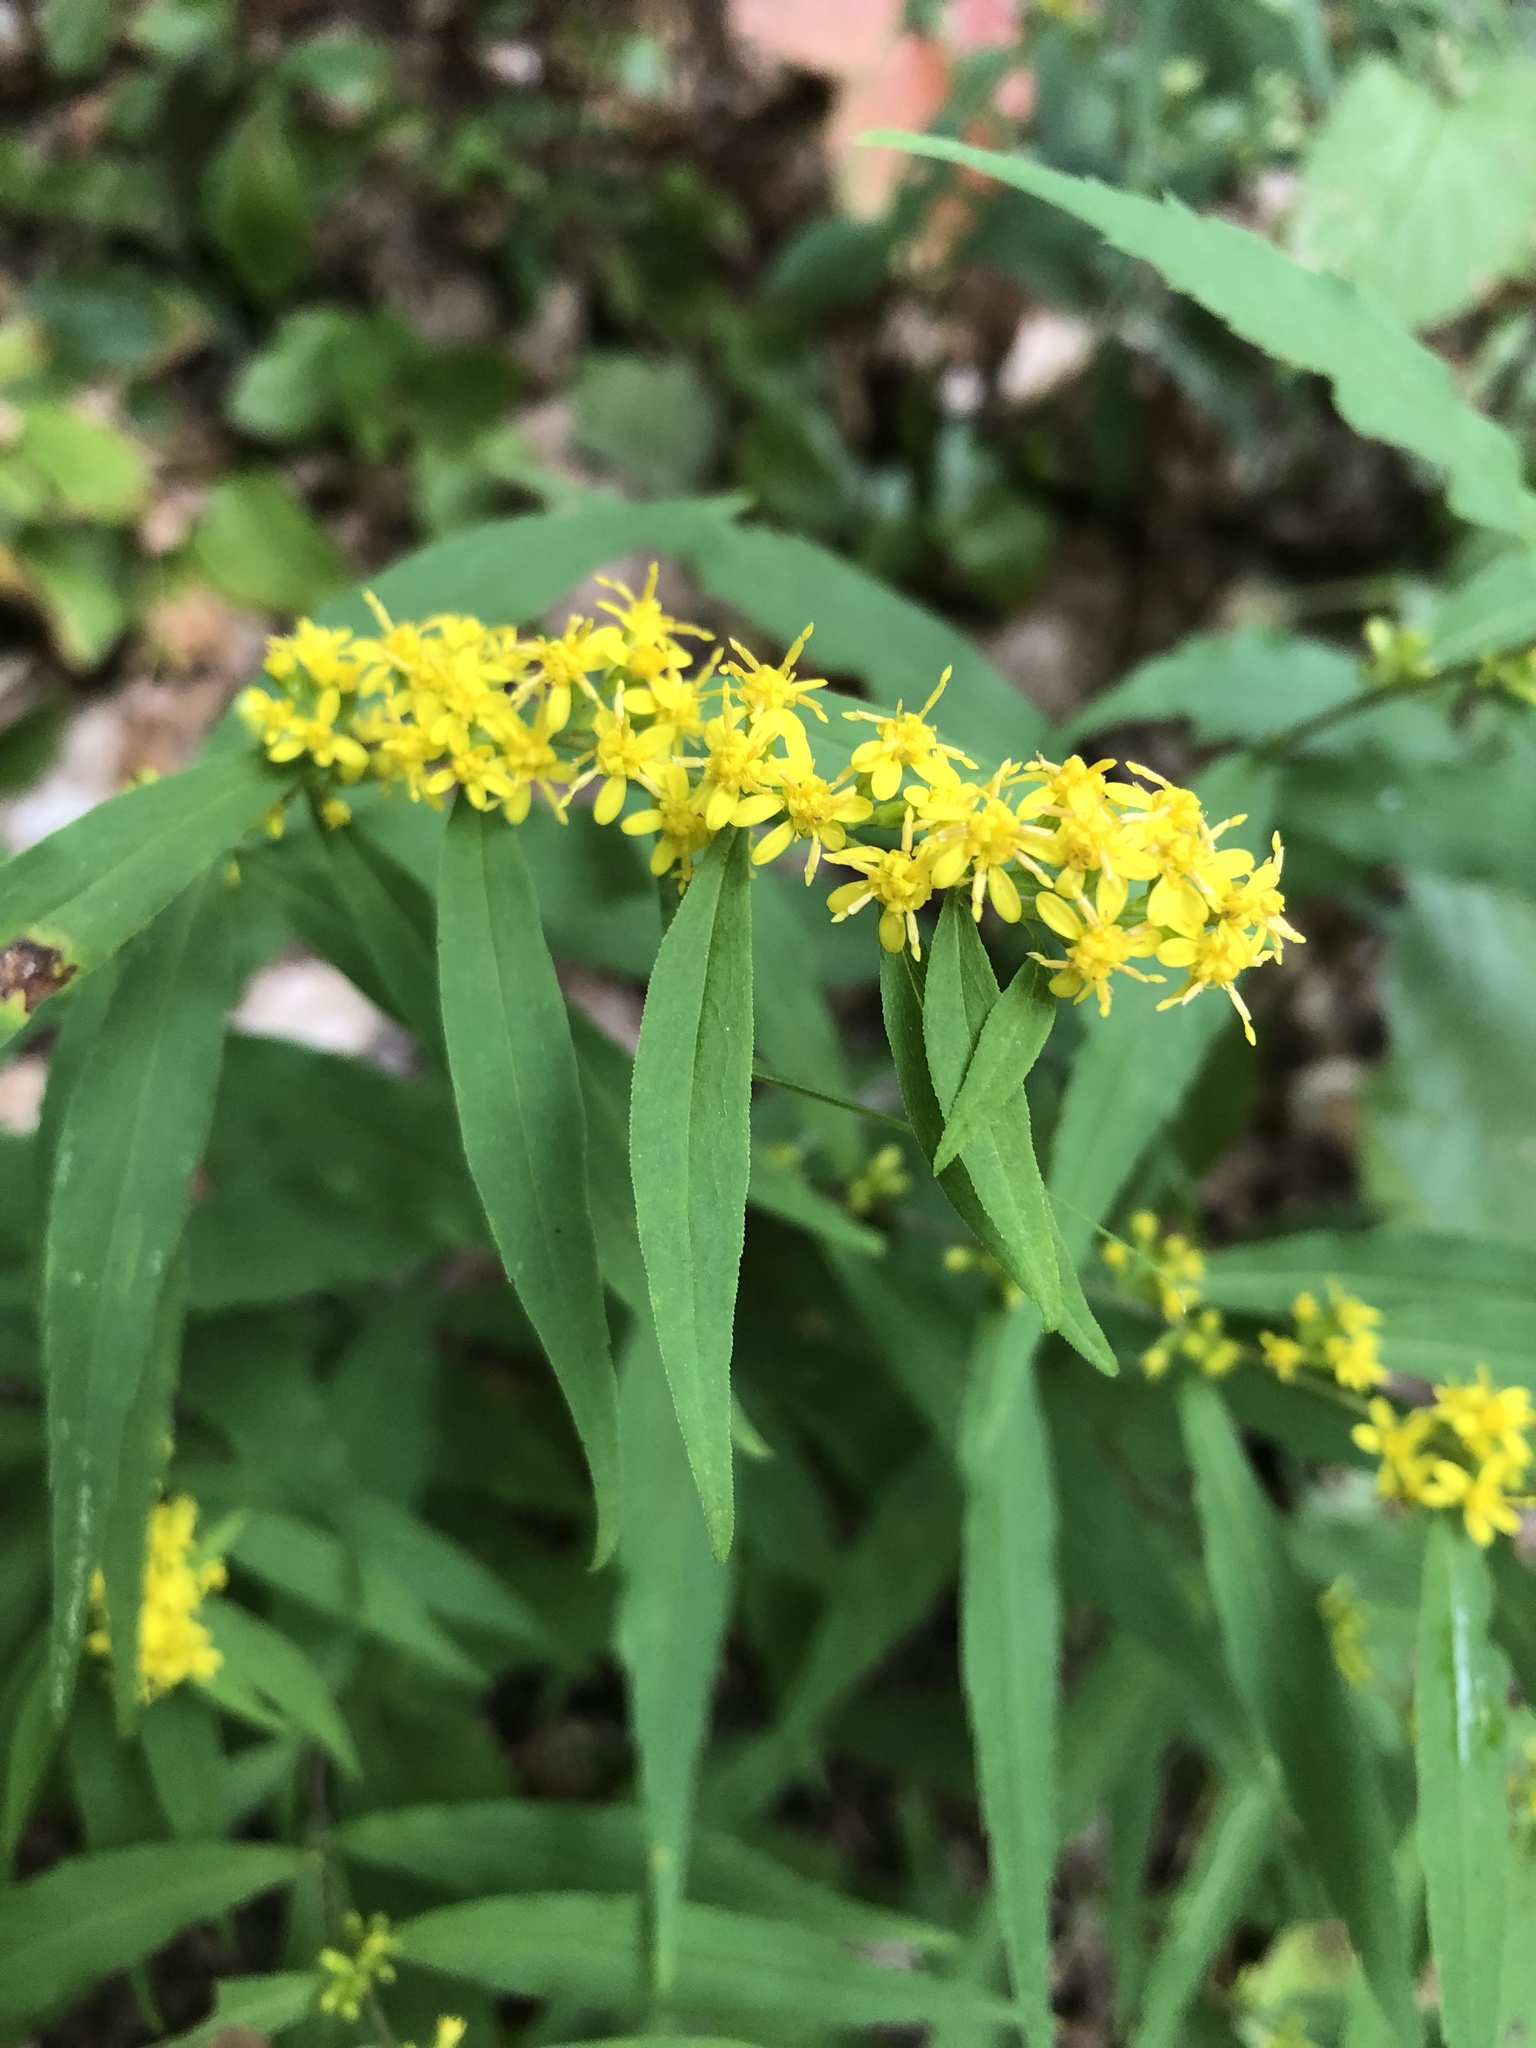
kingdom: Plantae
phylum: Tracheophyta
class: Magnoliopsida
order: Asterales
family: Asteraceae
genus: Solidago
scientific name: Solidago caesia
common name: Woodland goldenrod
